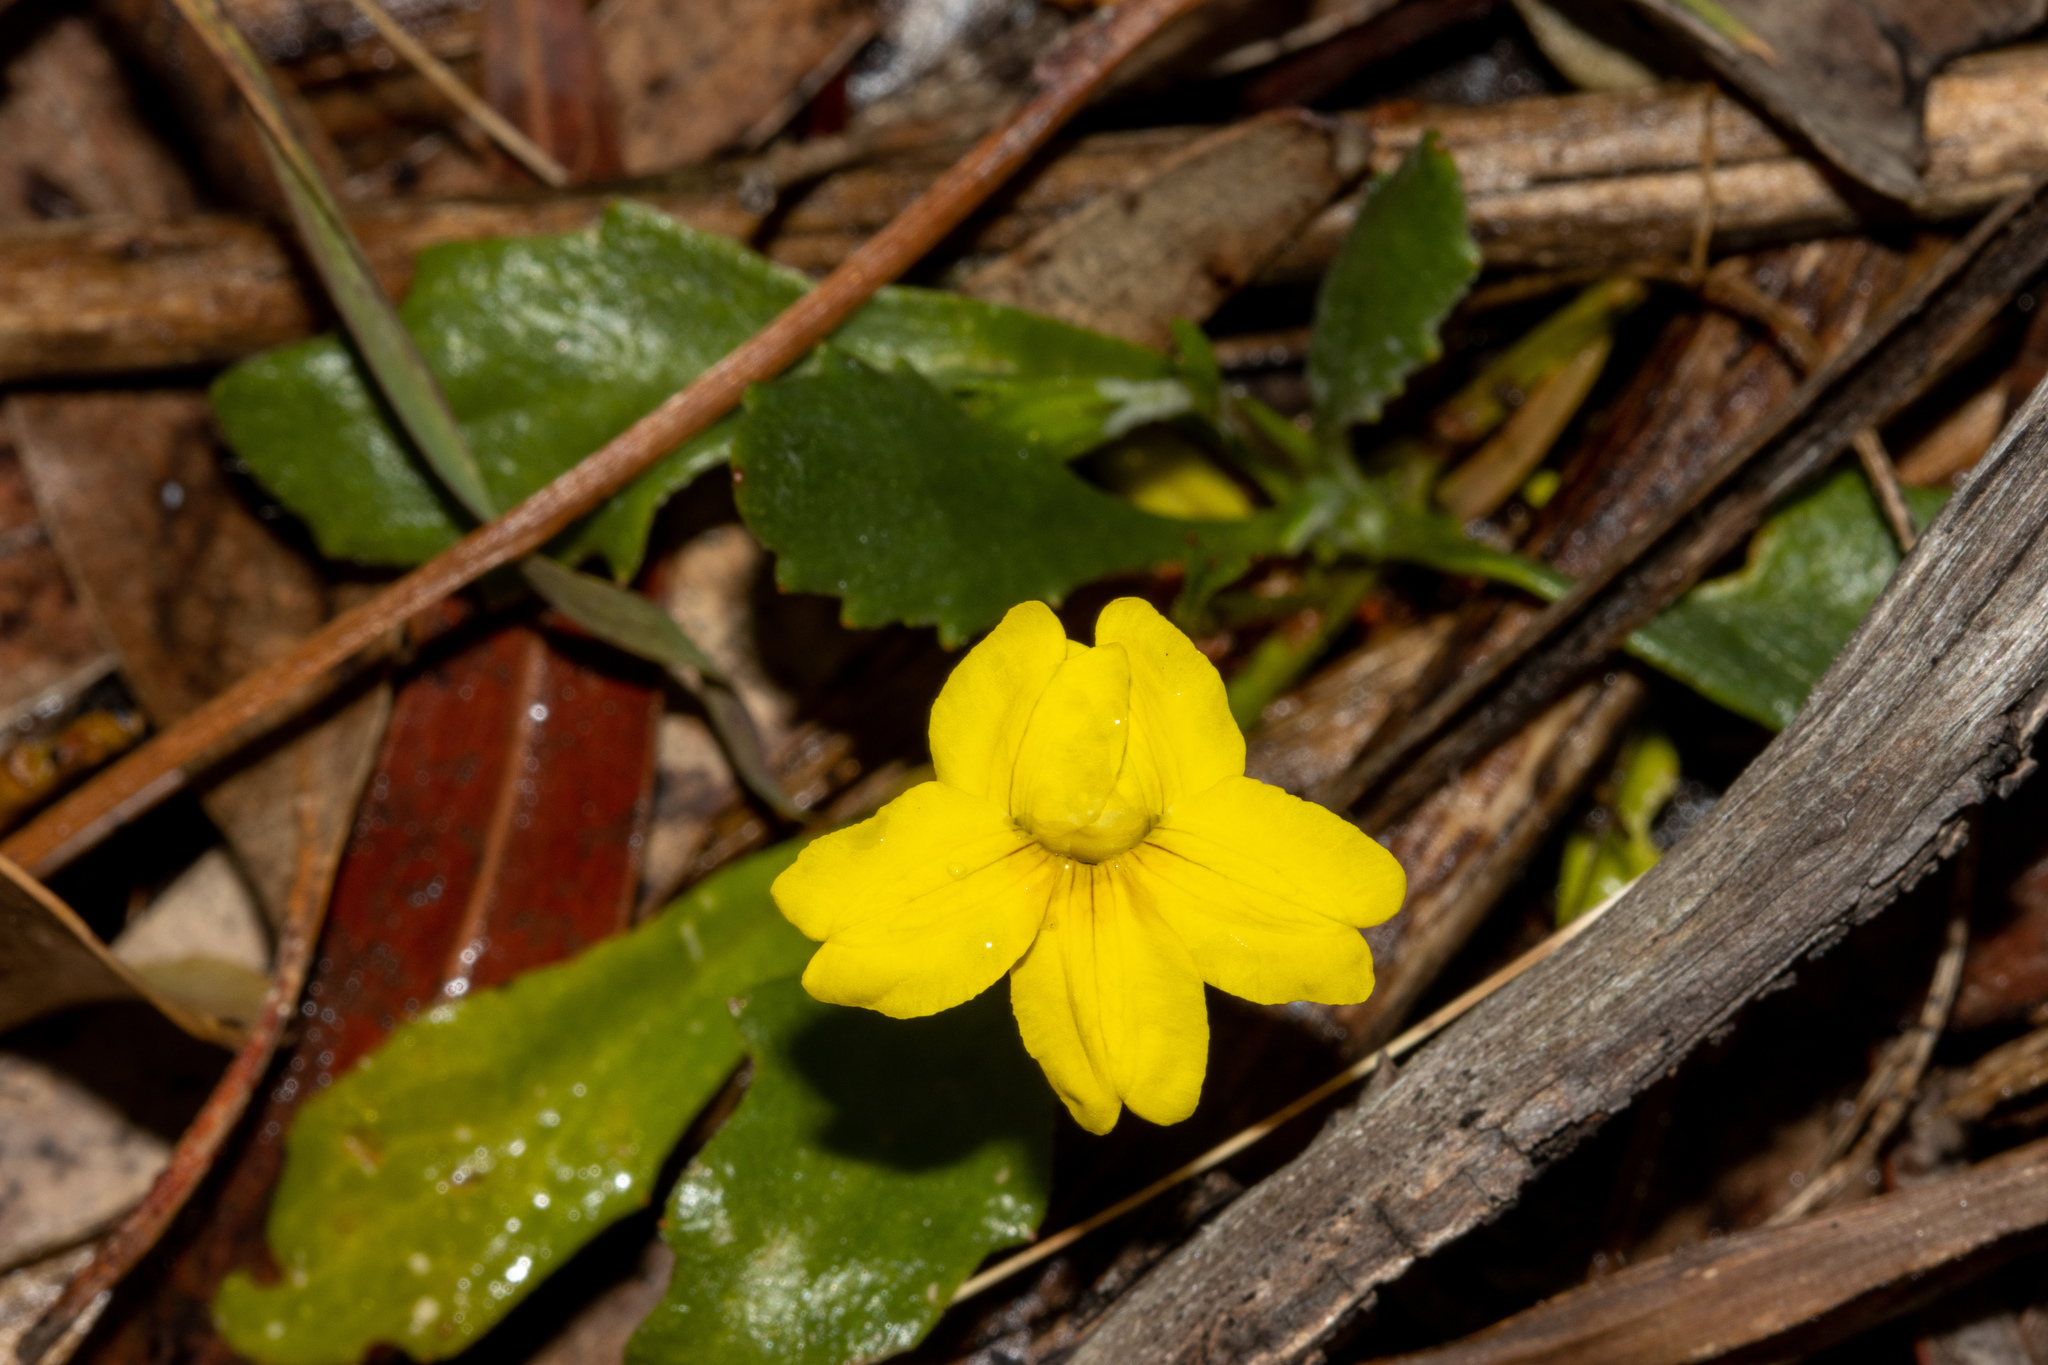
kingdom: Plantae
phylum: Tracheophyta
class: Magnoliopsida
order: Asterales
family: Goodeniaceae
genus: Goodenia
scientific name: Goodenia blackiana
